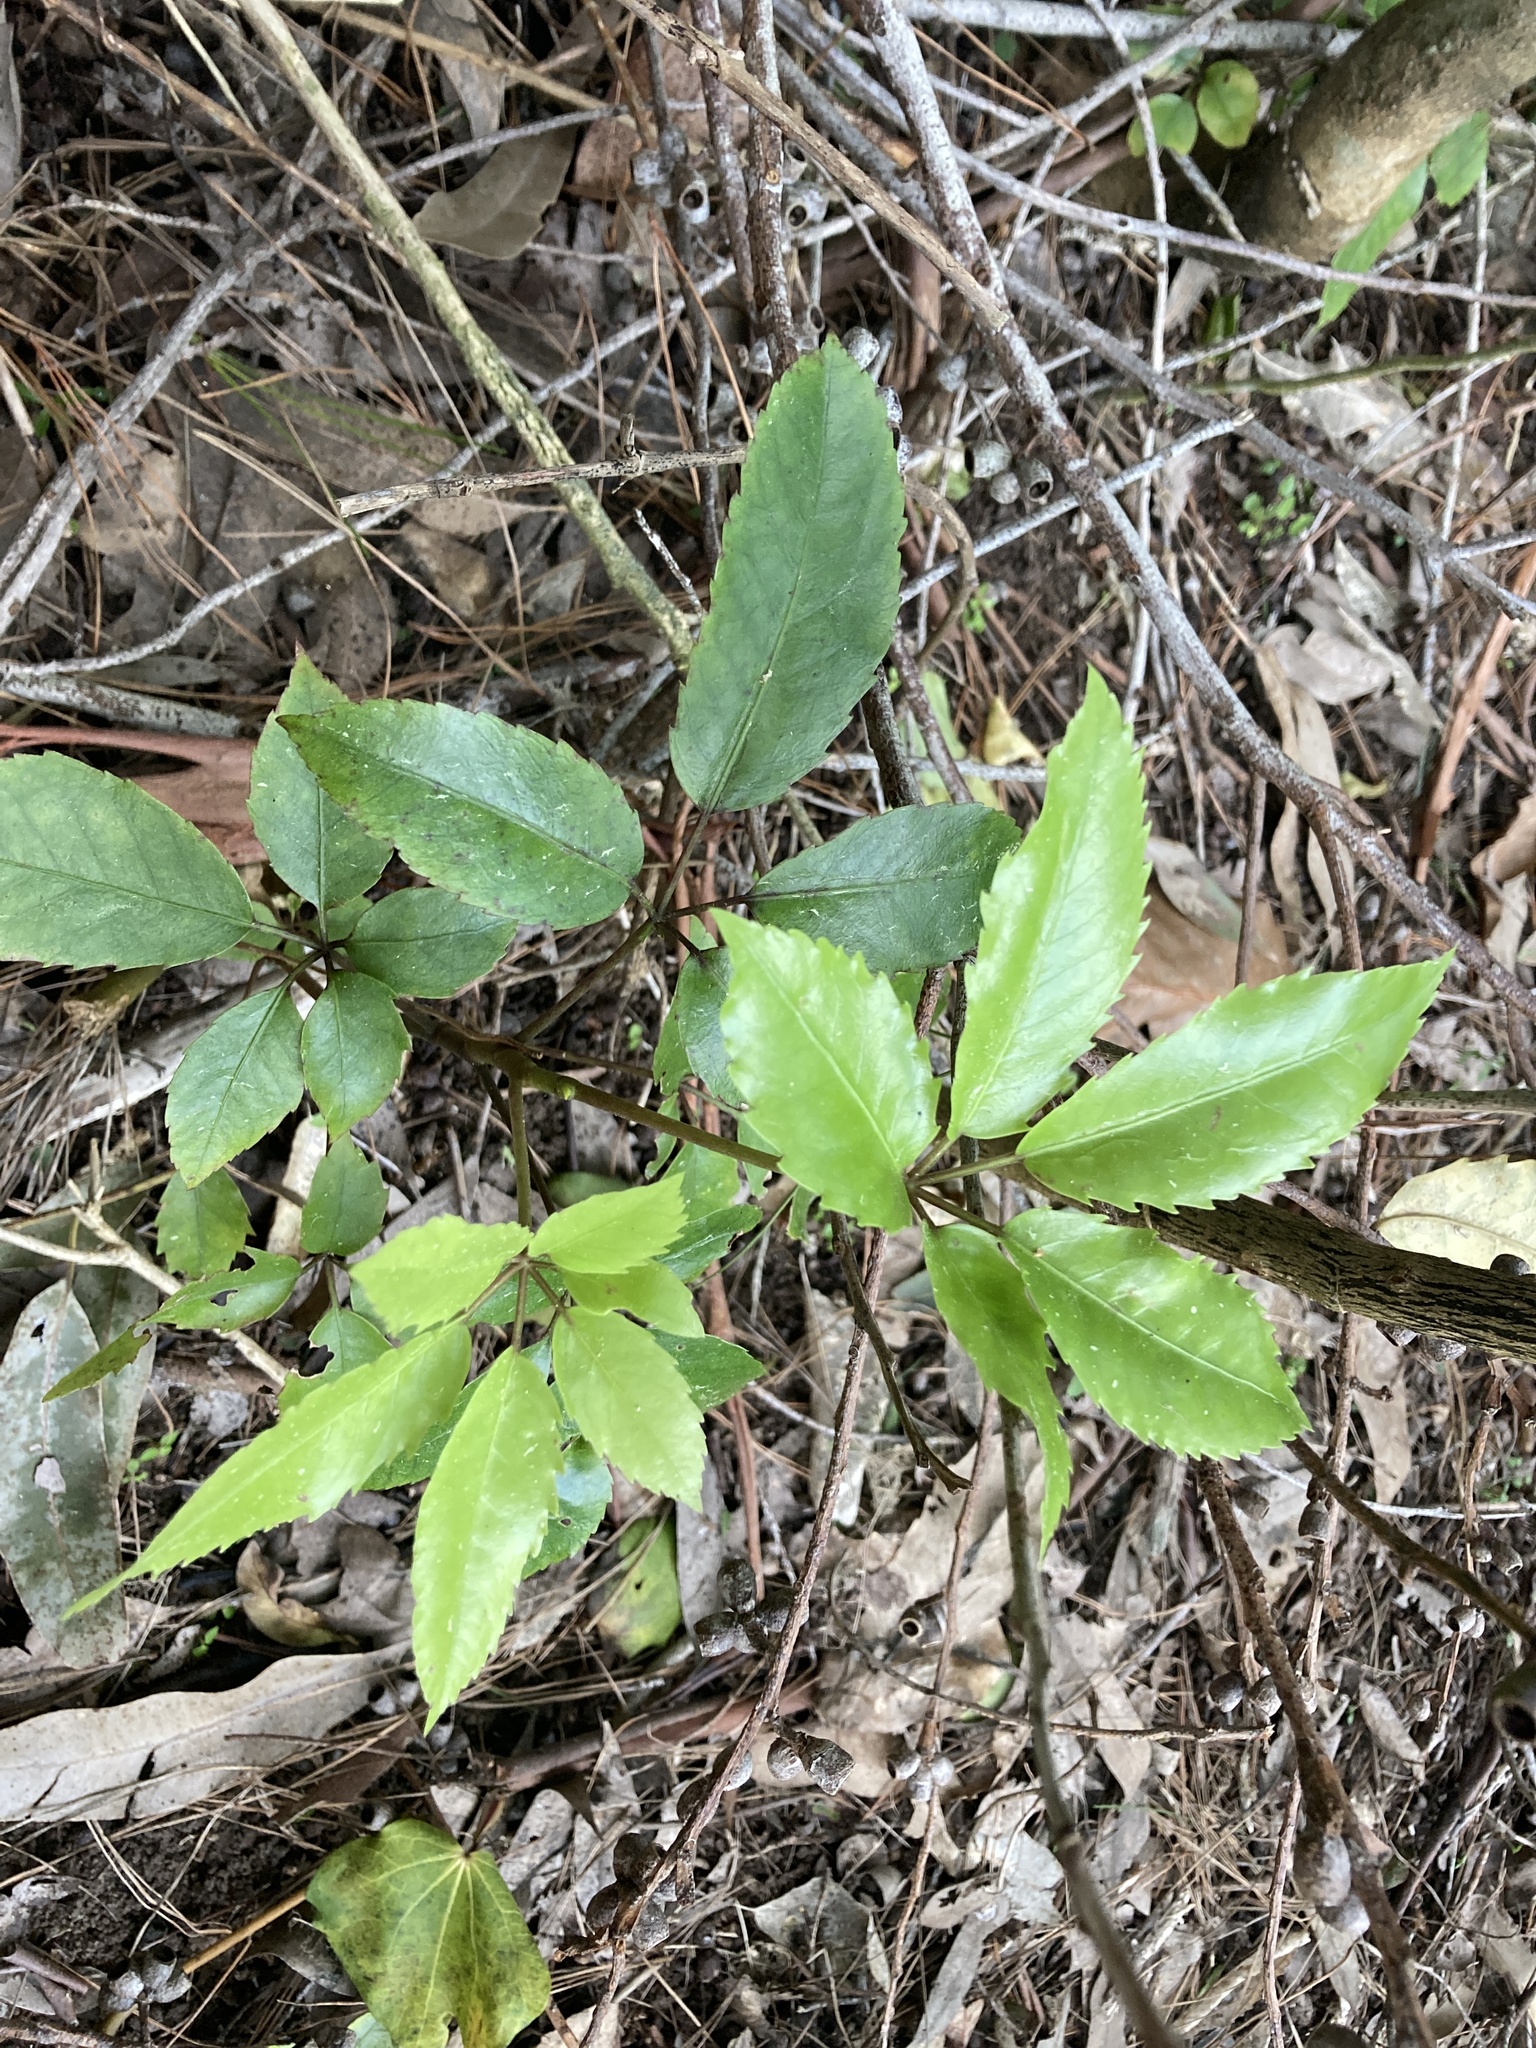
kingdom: Plantae
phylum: Tracheophyta
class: Magnoliopsida
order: Apiales
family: Araliaceae
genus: Neopanax
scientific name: Neopanax arboreus
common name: Five-fingers
